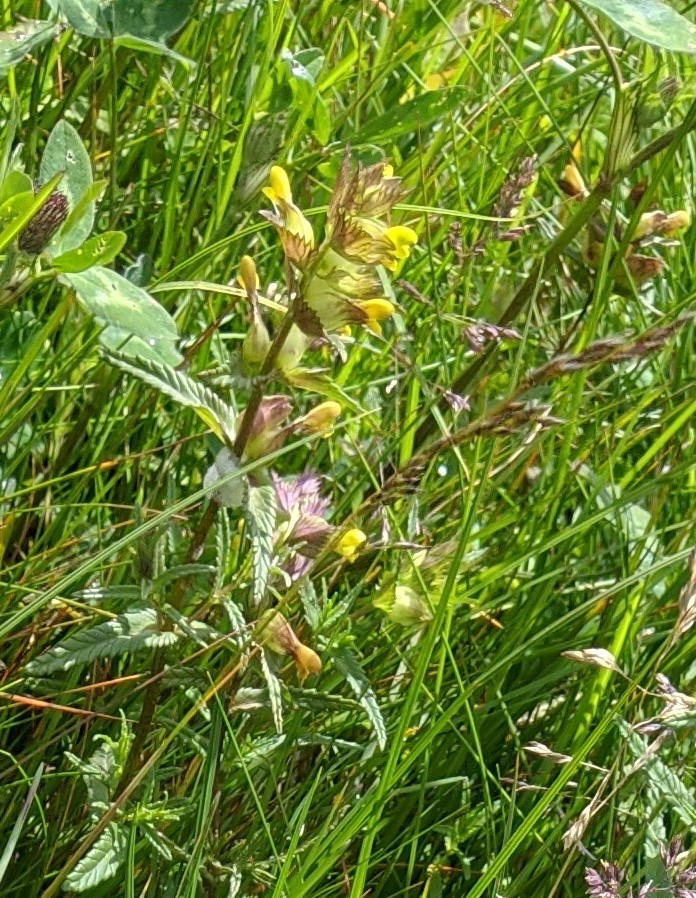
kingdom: Plantae
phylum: Tracheophyta
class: Magnoliopsida
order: Lamiales
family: Orobanchaceae
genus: Rhinanthus
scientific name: Rhinanthus minor
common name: Yellow-rattle
